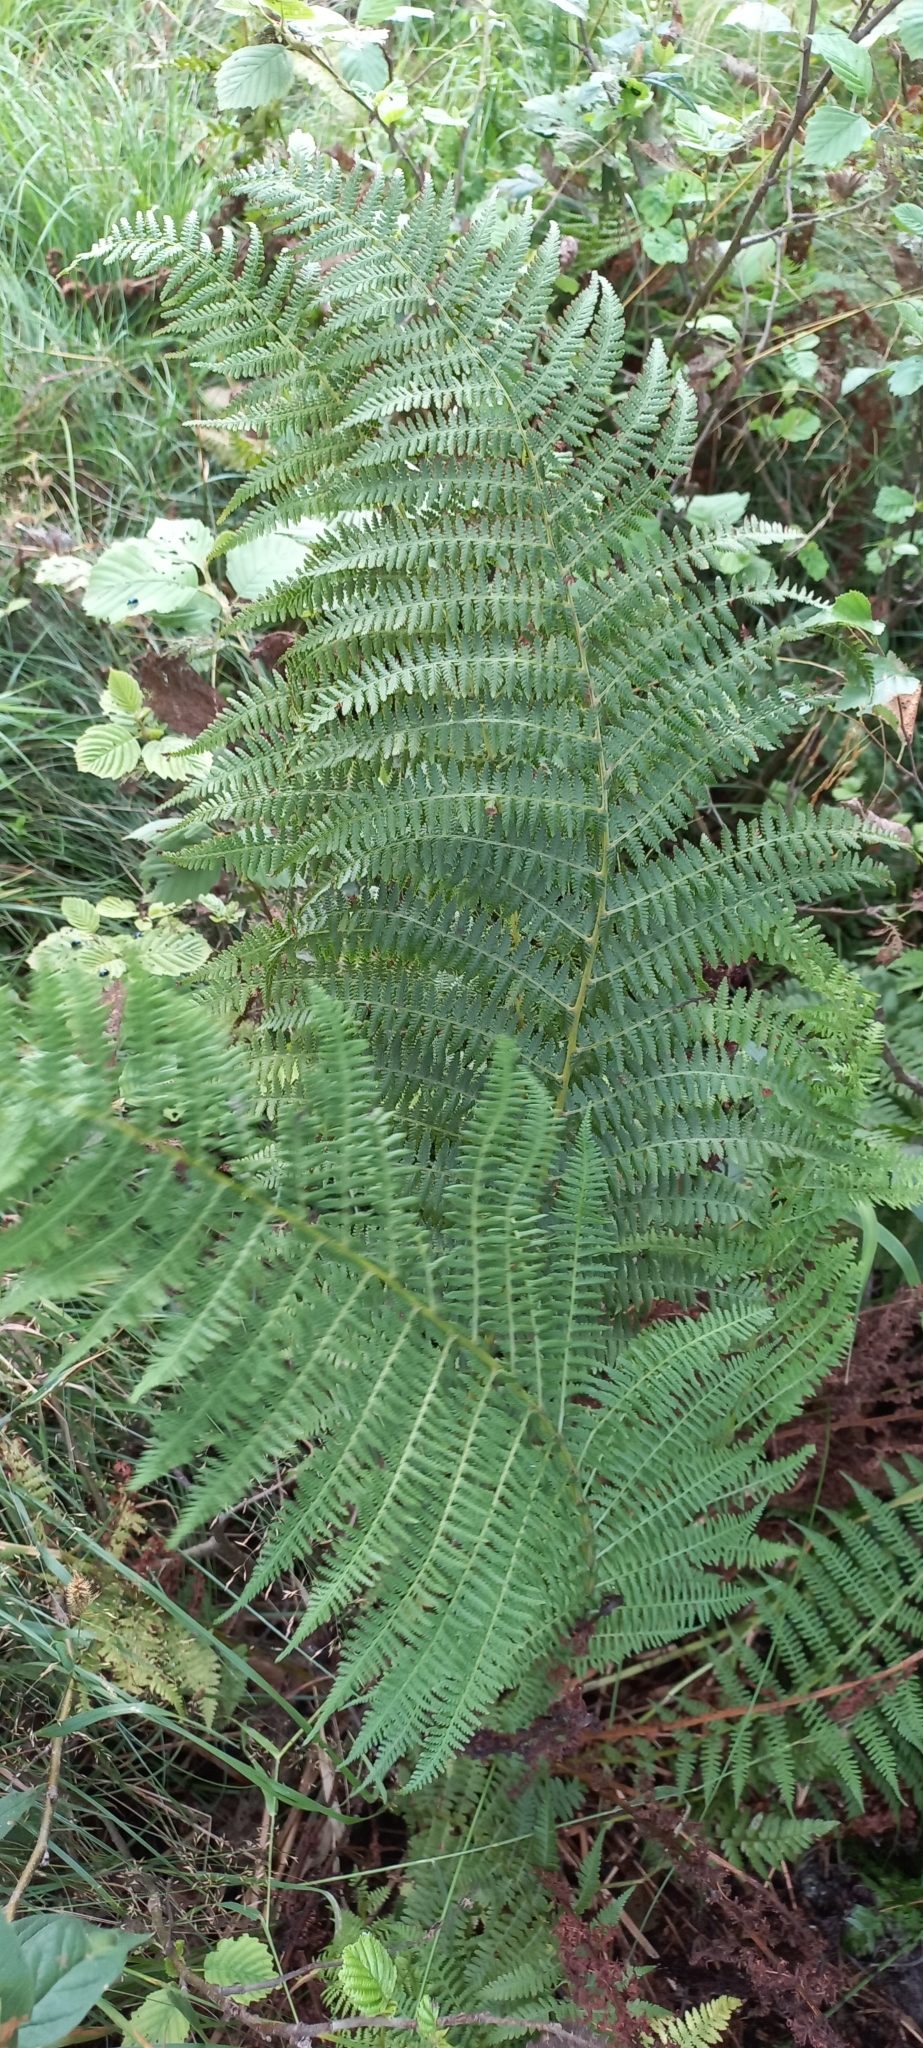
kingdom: Plantae
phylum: Tracheophyta
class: Polypodiopsida
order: Polypodiales
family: Athyriaceae
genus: Athyrium
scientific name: Athyrium filix-femina
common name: Lady fern
